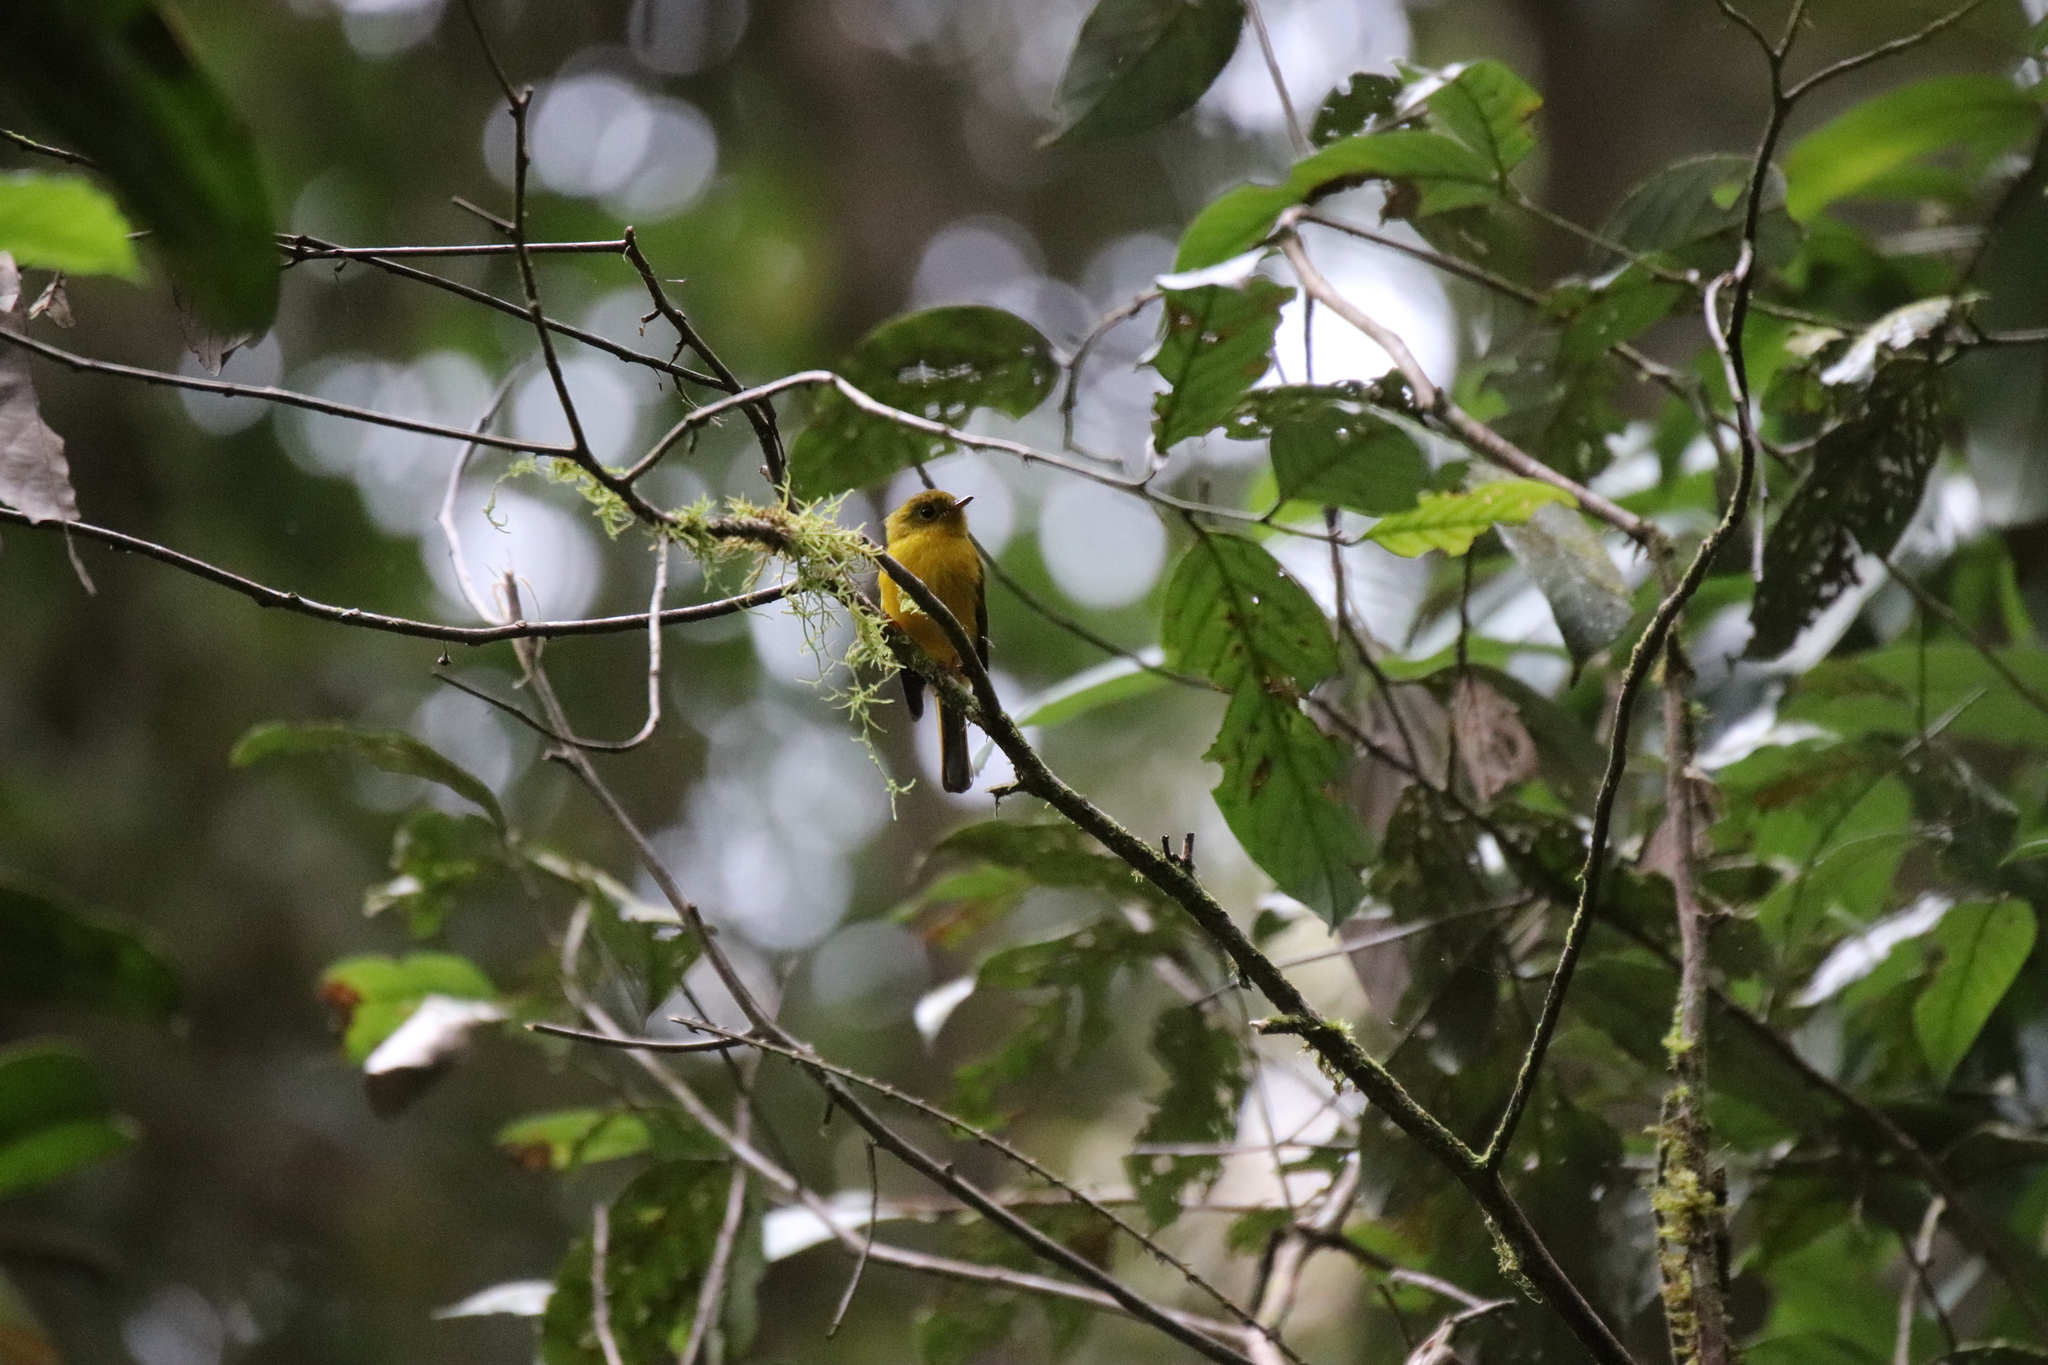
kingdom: Animalia
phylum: Chordata
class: Aves
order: Passeriformes
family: Stenostiridae
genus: Culicicapa
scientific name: Culicicapa helianthea
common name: Citrine canary-flycatcher
